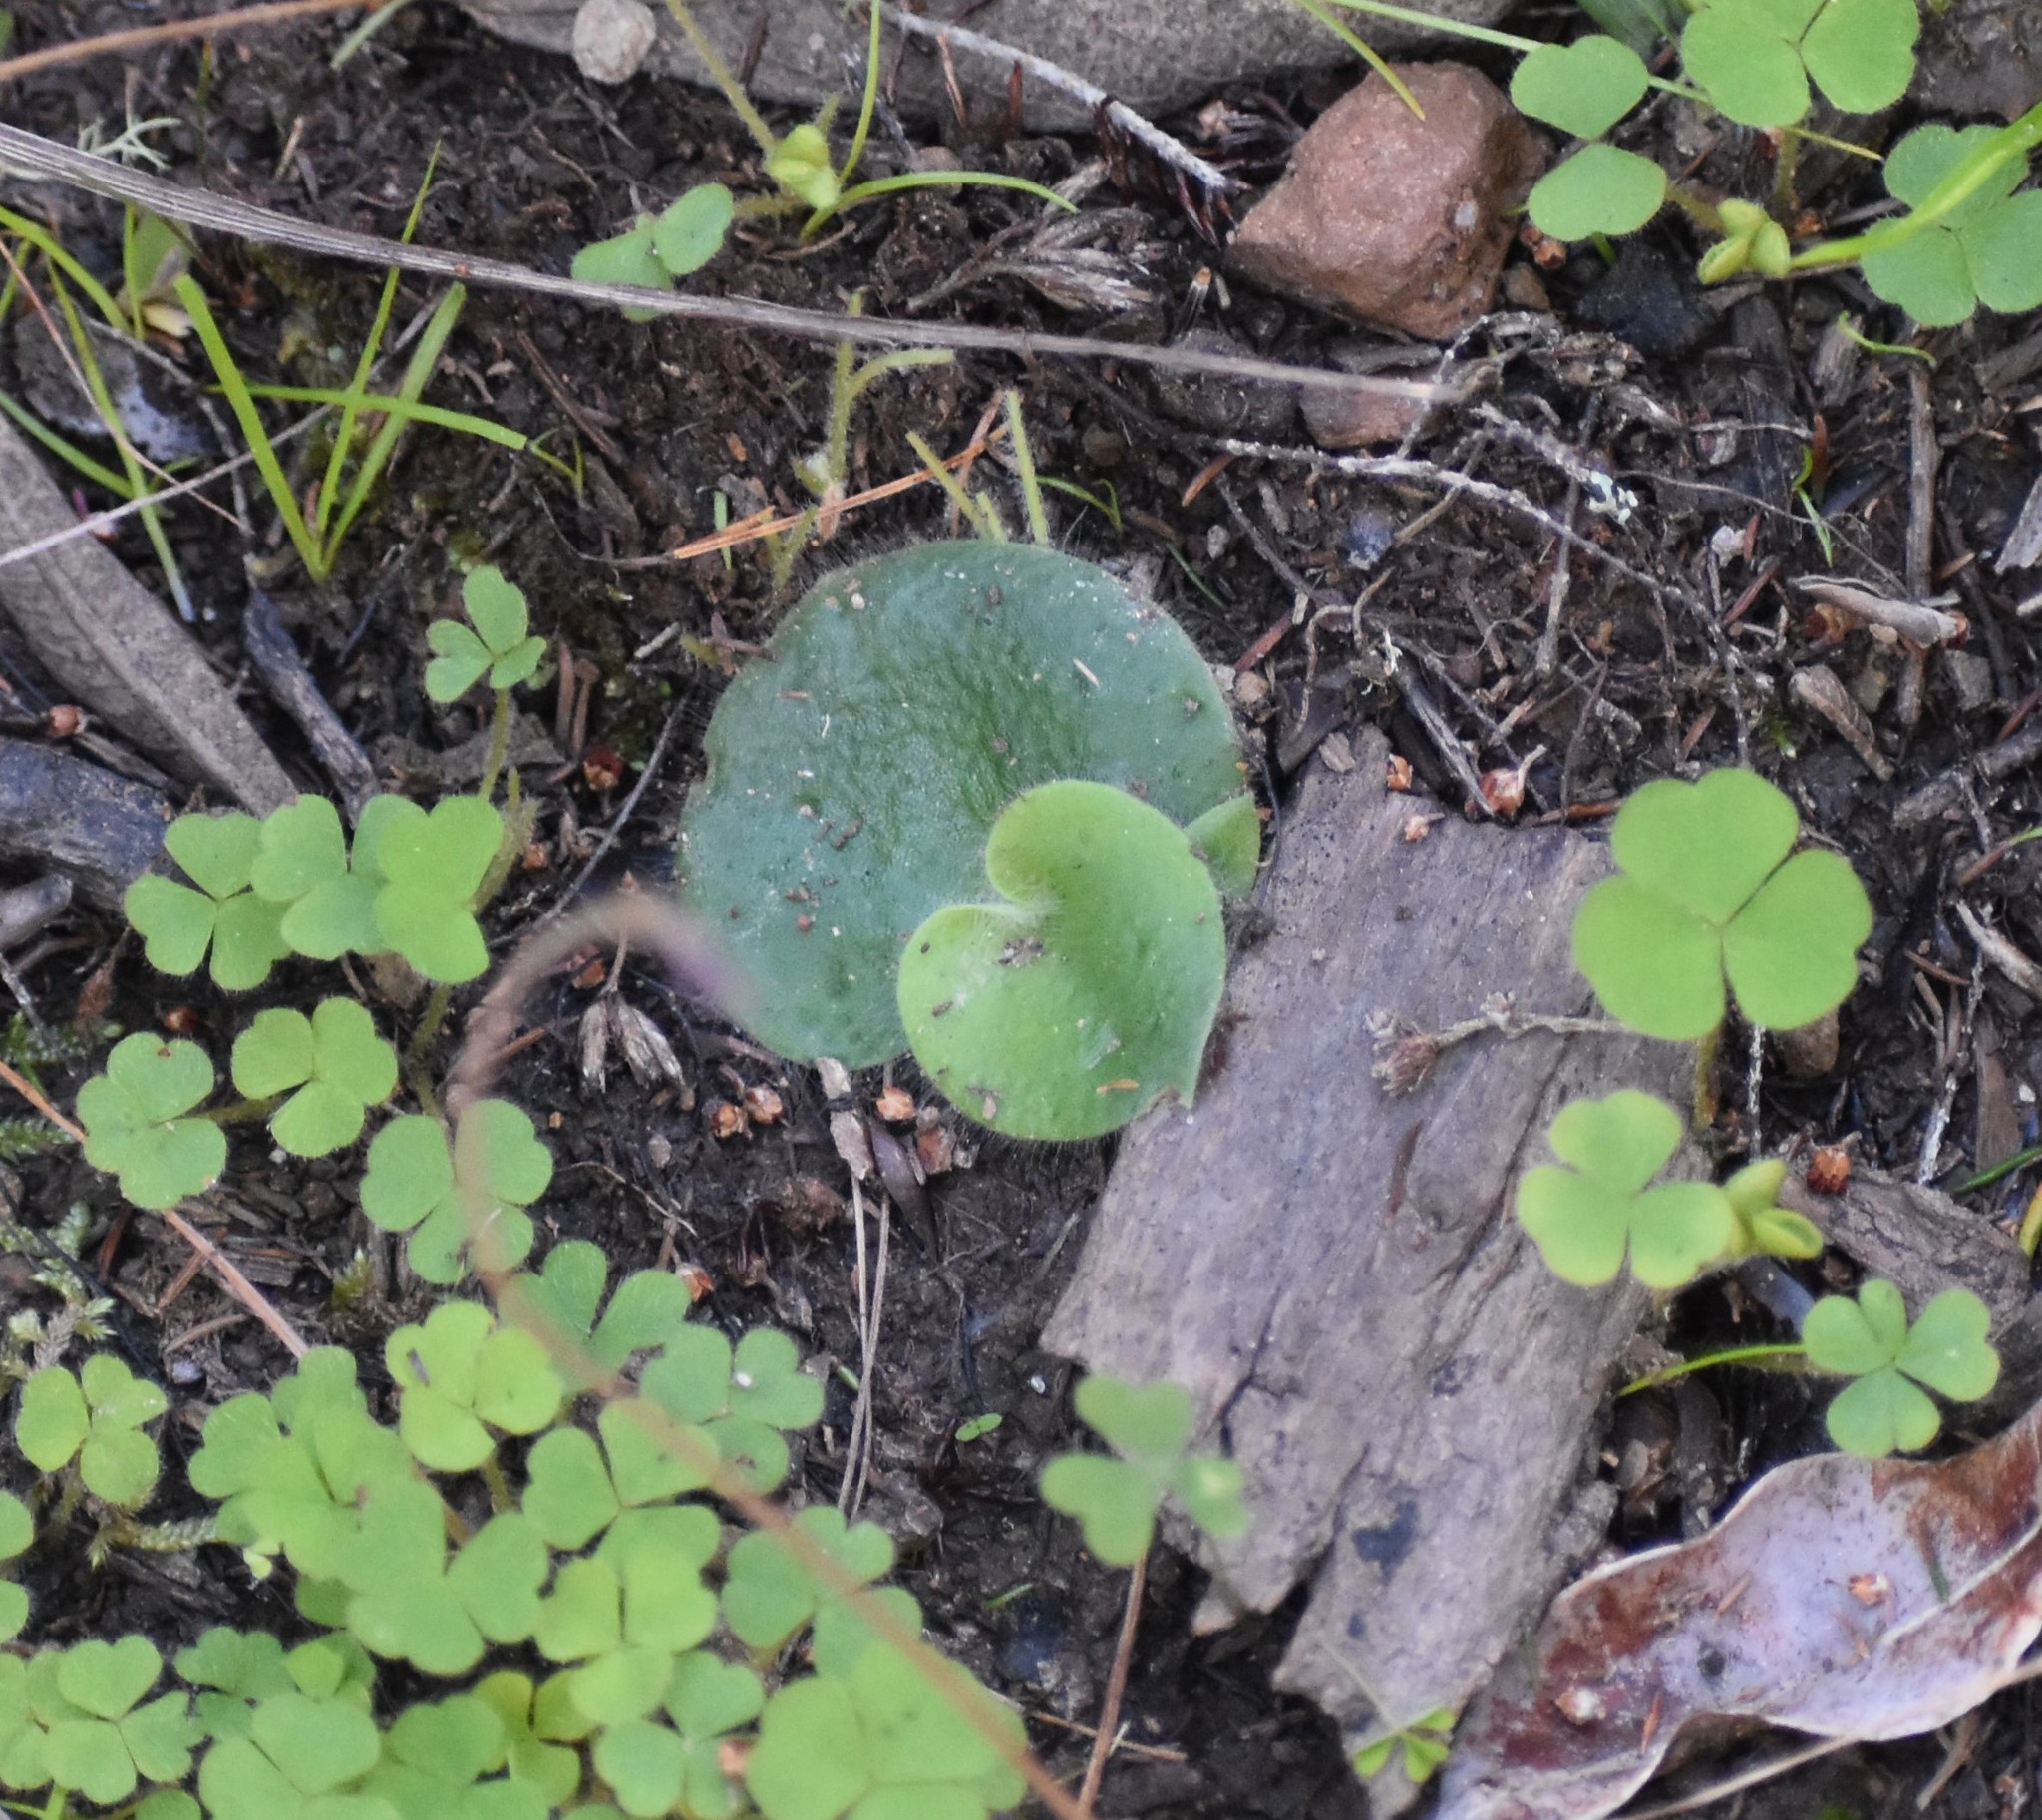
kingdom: Plantae
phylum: Tracheophyta
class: Liliopsida
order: Asparagales
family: Orchidaceae
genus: Holothrix
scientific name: Holothrix villosa
